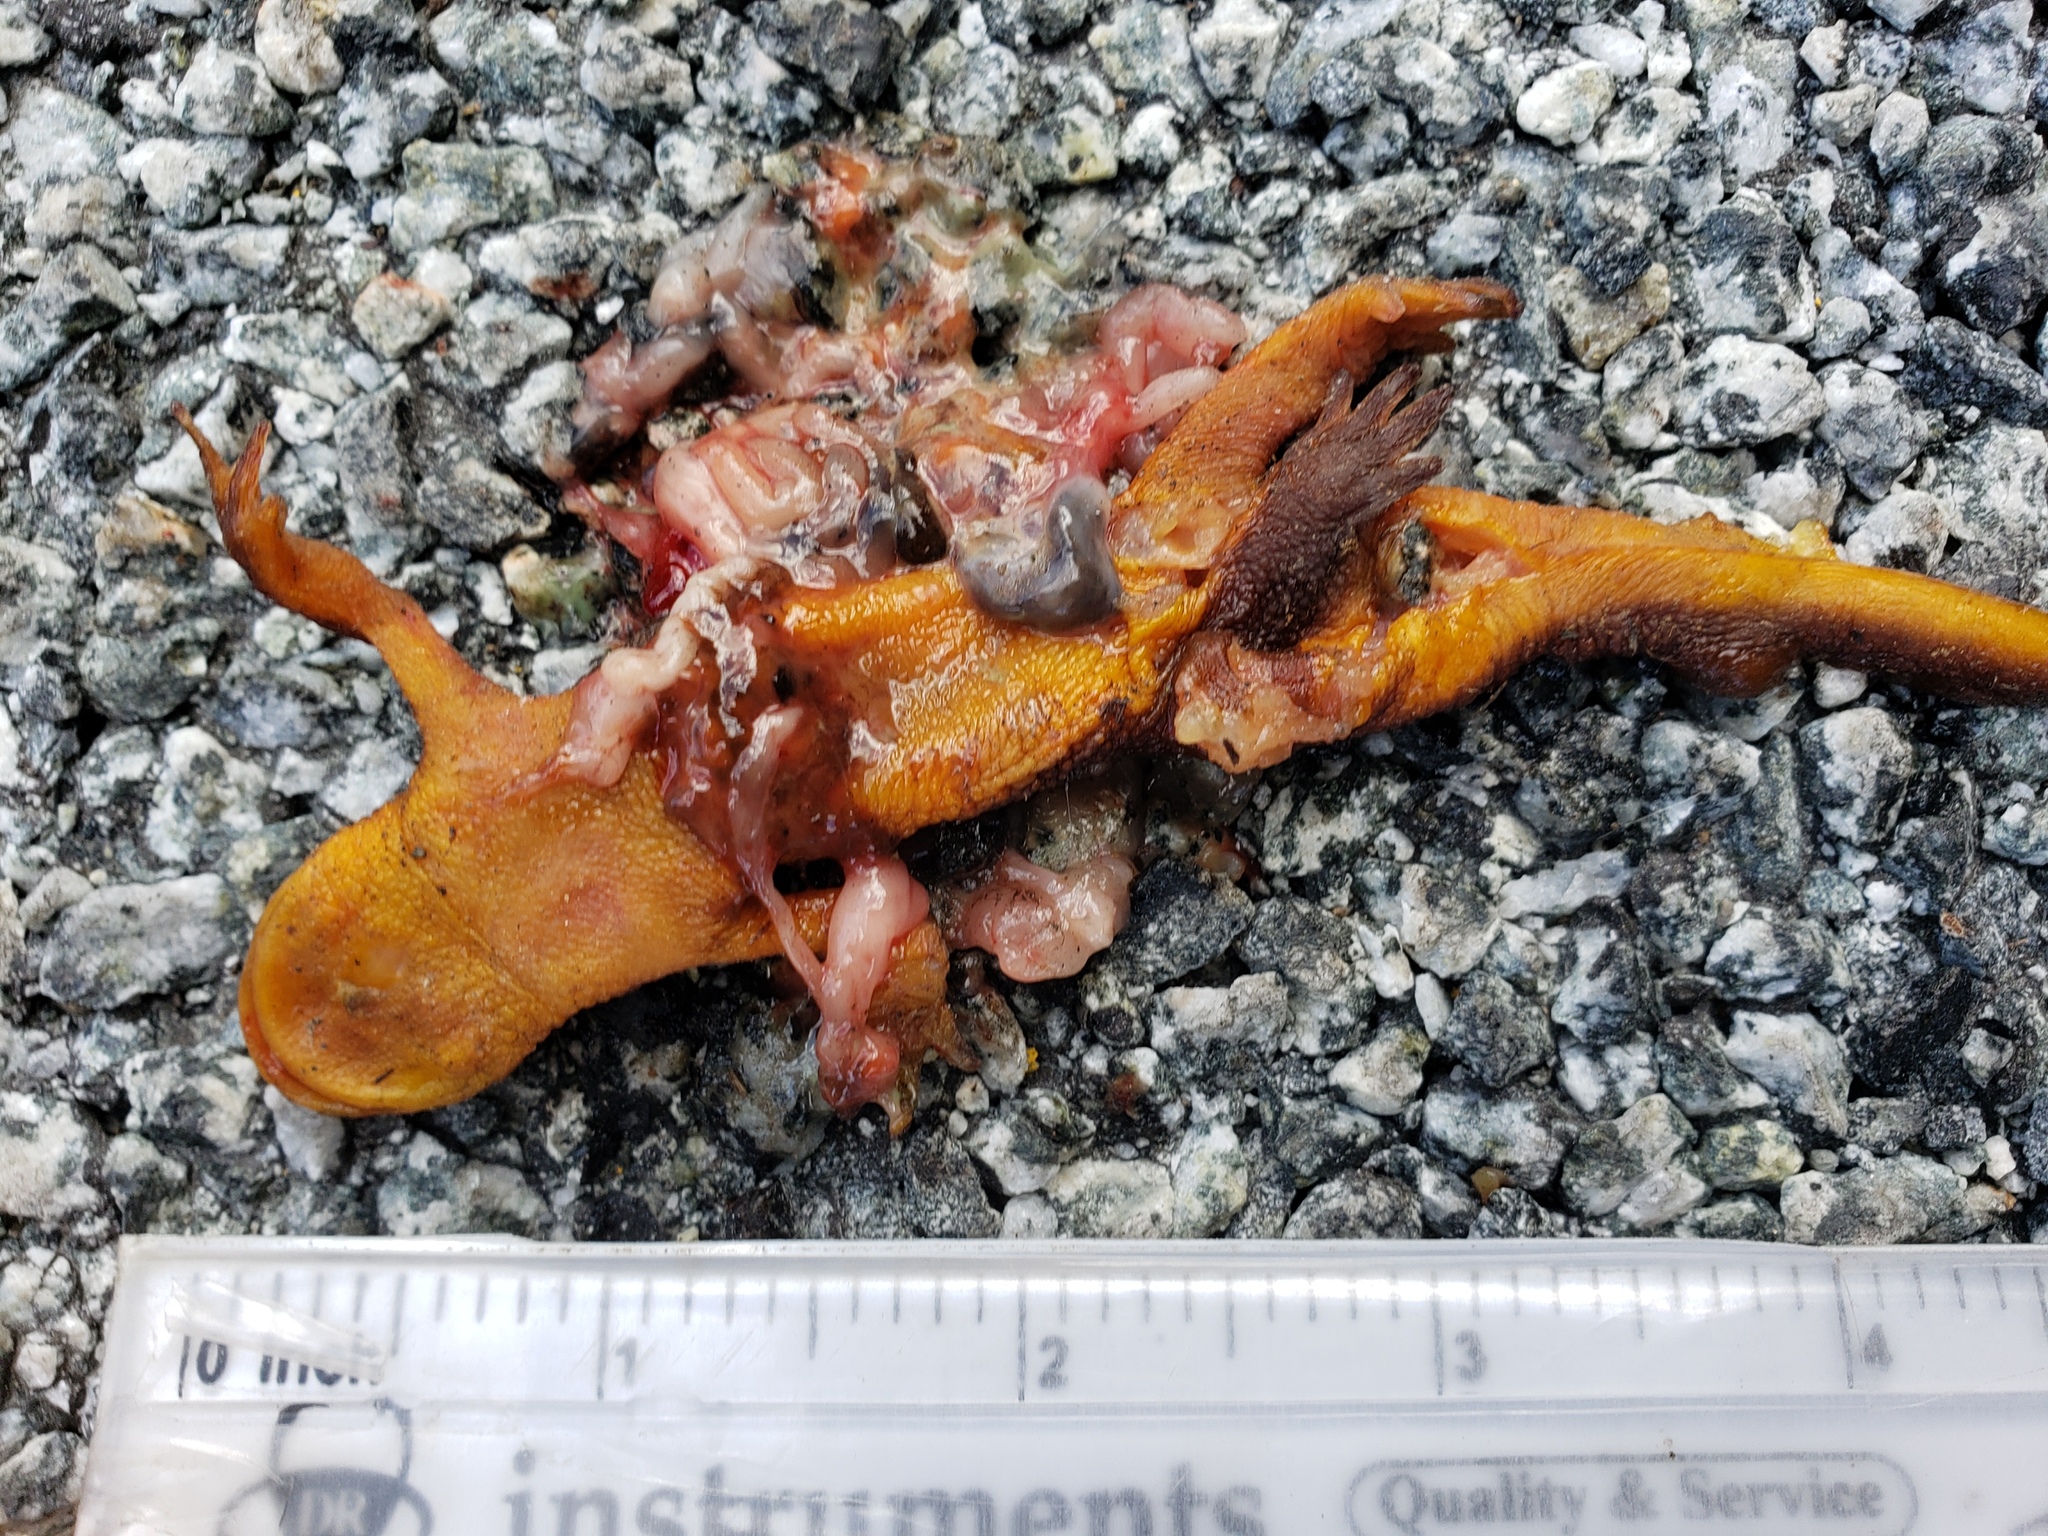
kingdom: Animalia
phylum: Chordata
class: Amphibia
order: Caudata
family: Salamandridae
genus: Taricha
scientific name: Taricha
